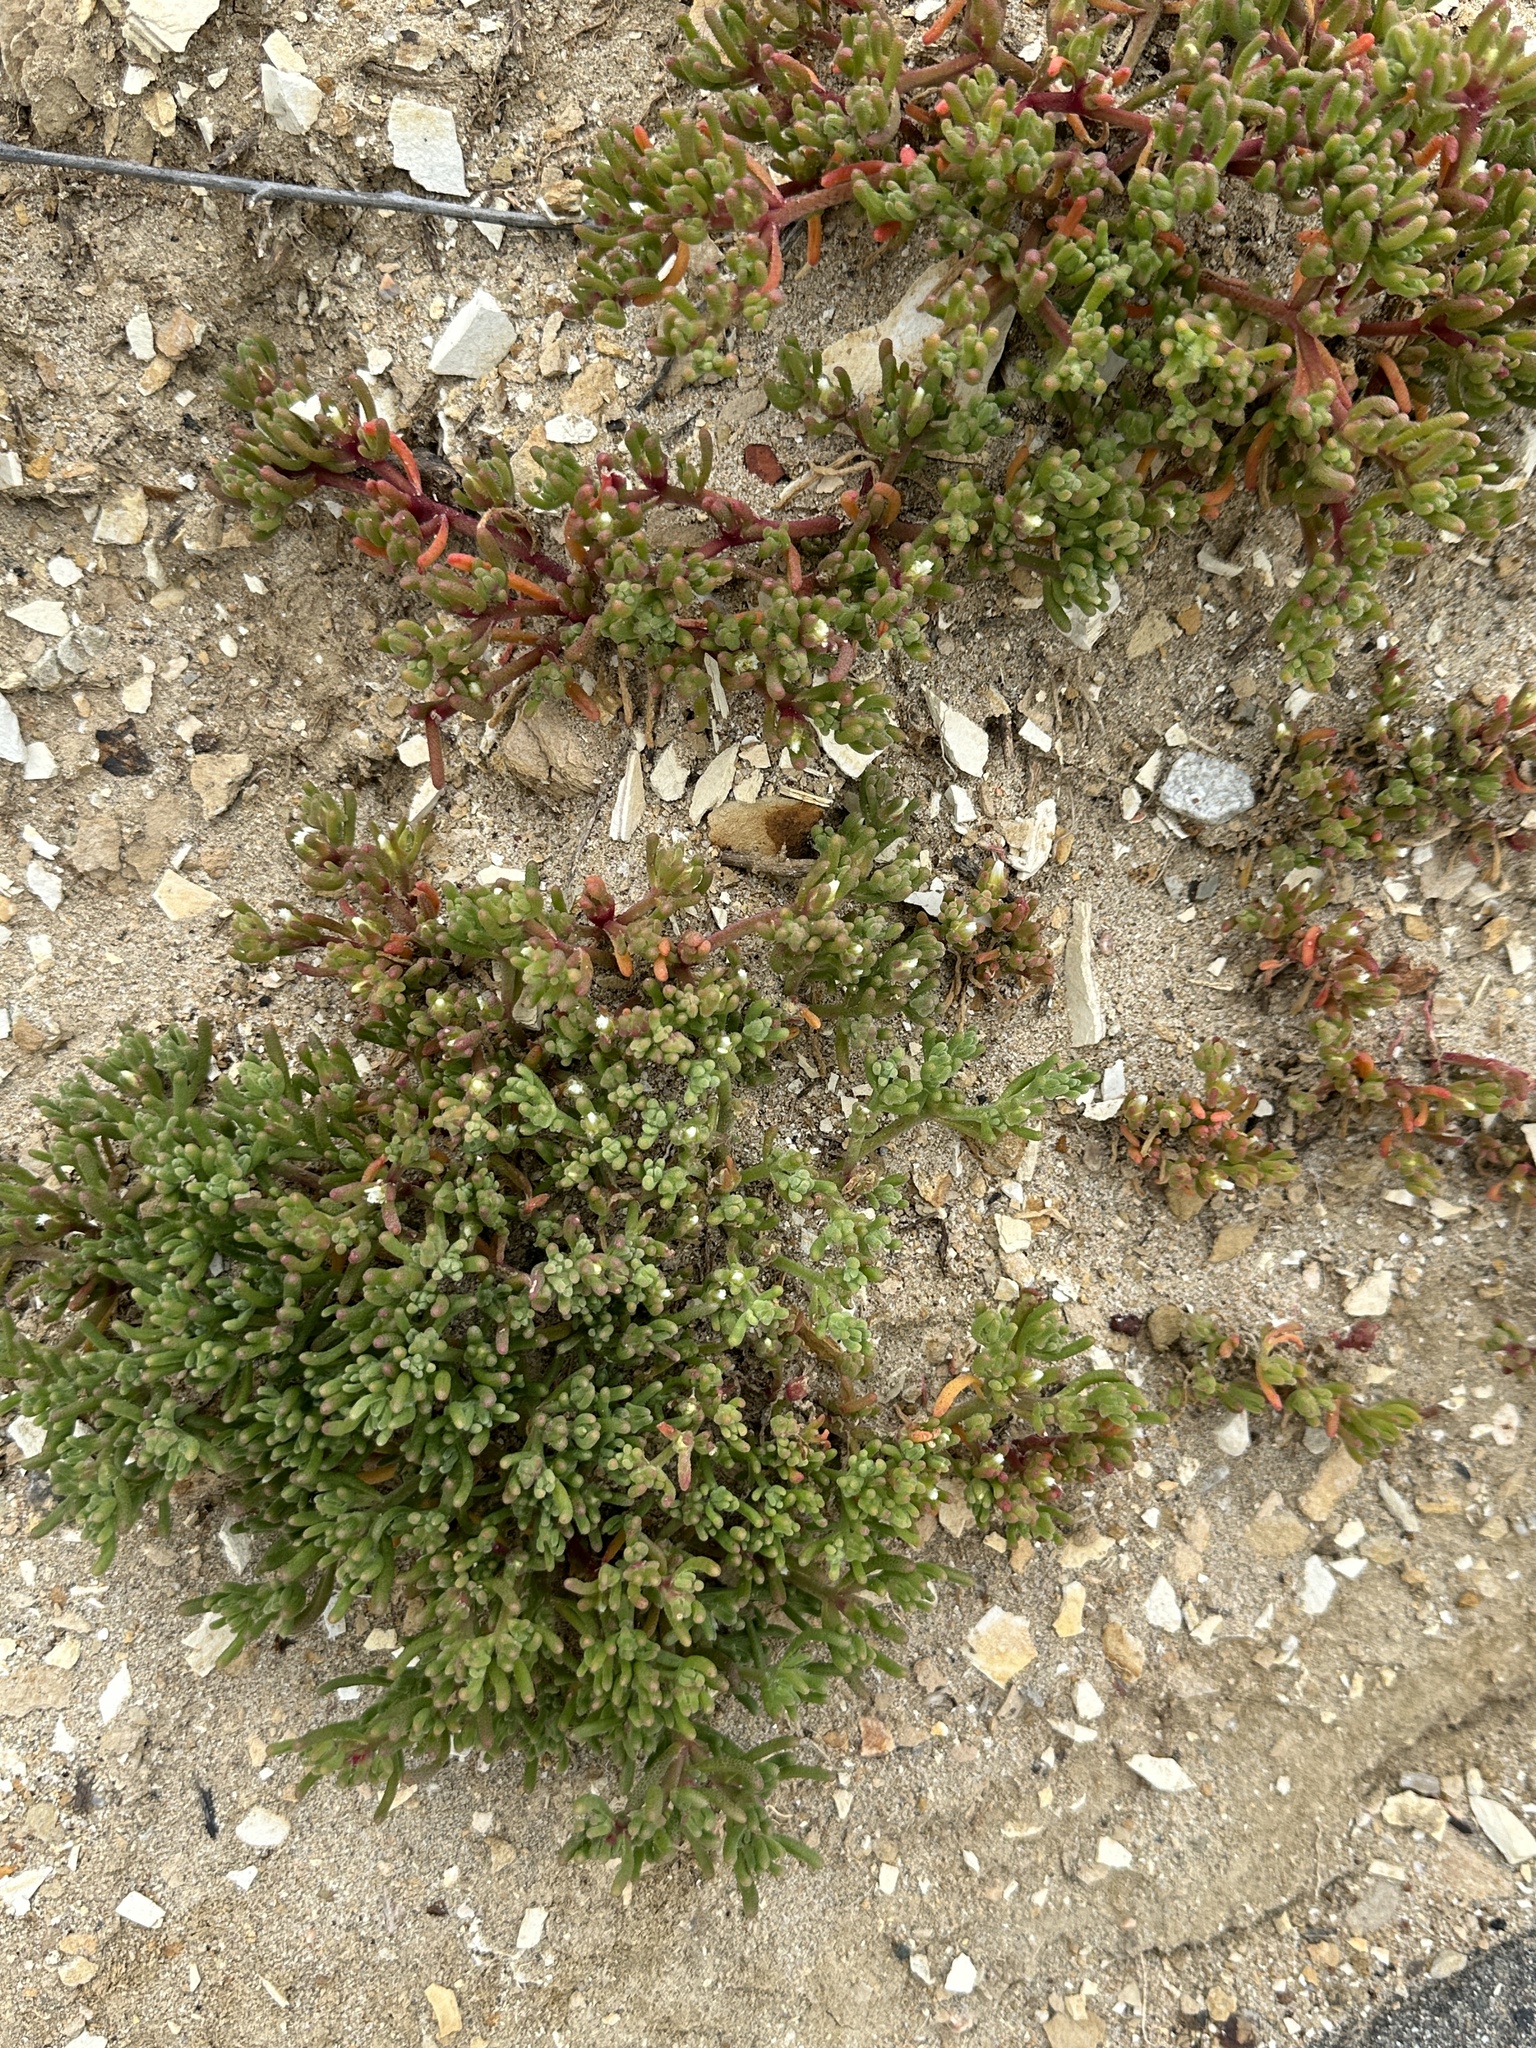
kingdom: Plantae
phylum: Tracheophyta
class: Magnoliopsida
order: Caryophyllales
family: Aizoaceae
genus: Mesembryanthemum
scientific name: Mesembryanthemum nodiflorum
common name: Slenderleaf iceplant
